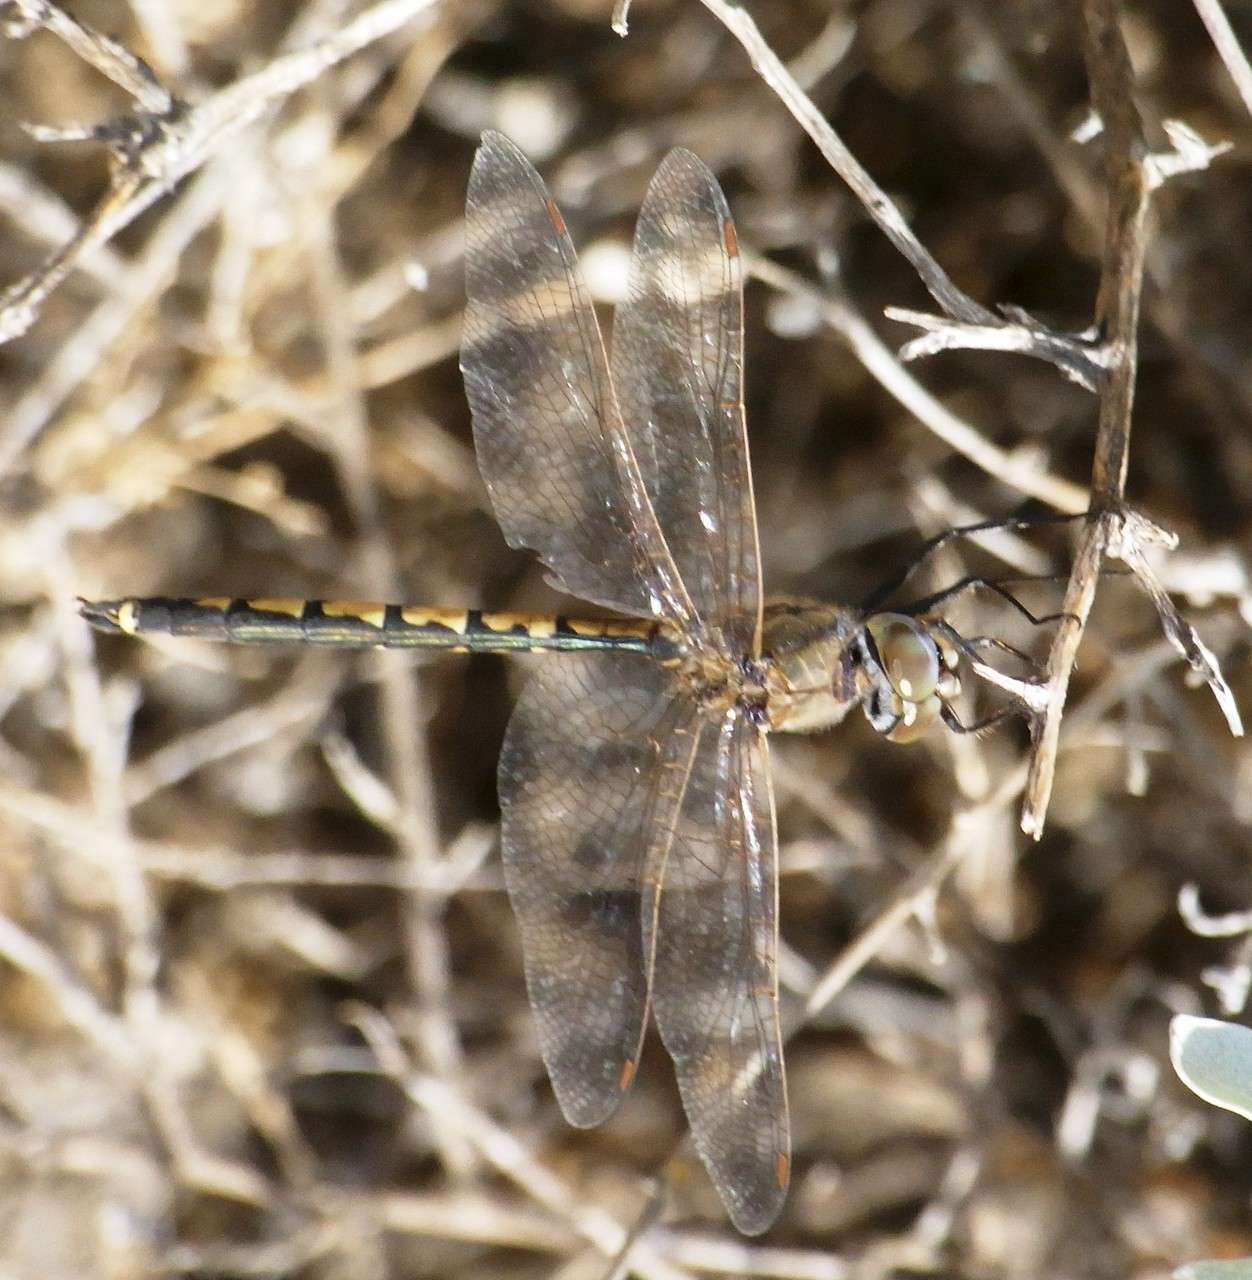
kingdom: Animalia
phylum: Arthropoda
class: Insecta
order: Odonata
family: Corduliidae
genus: Hemicordulia
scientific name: Hemicordulia tau
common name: Tau emerald
